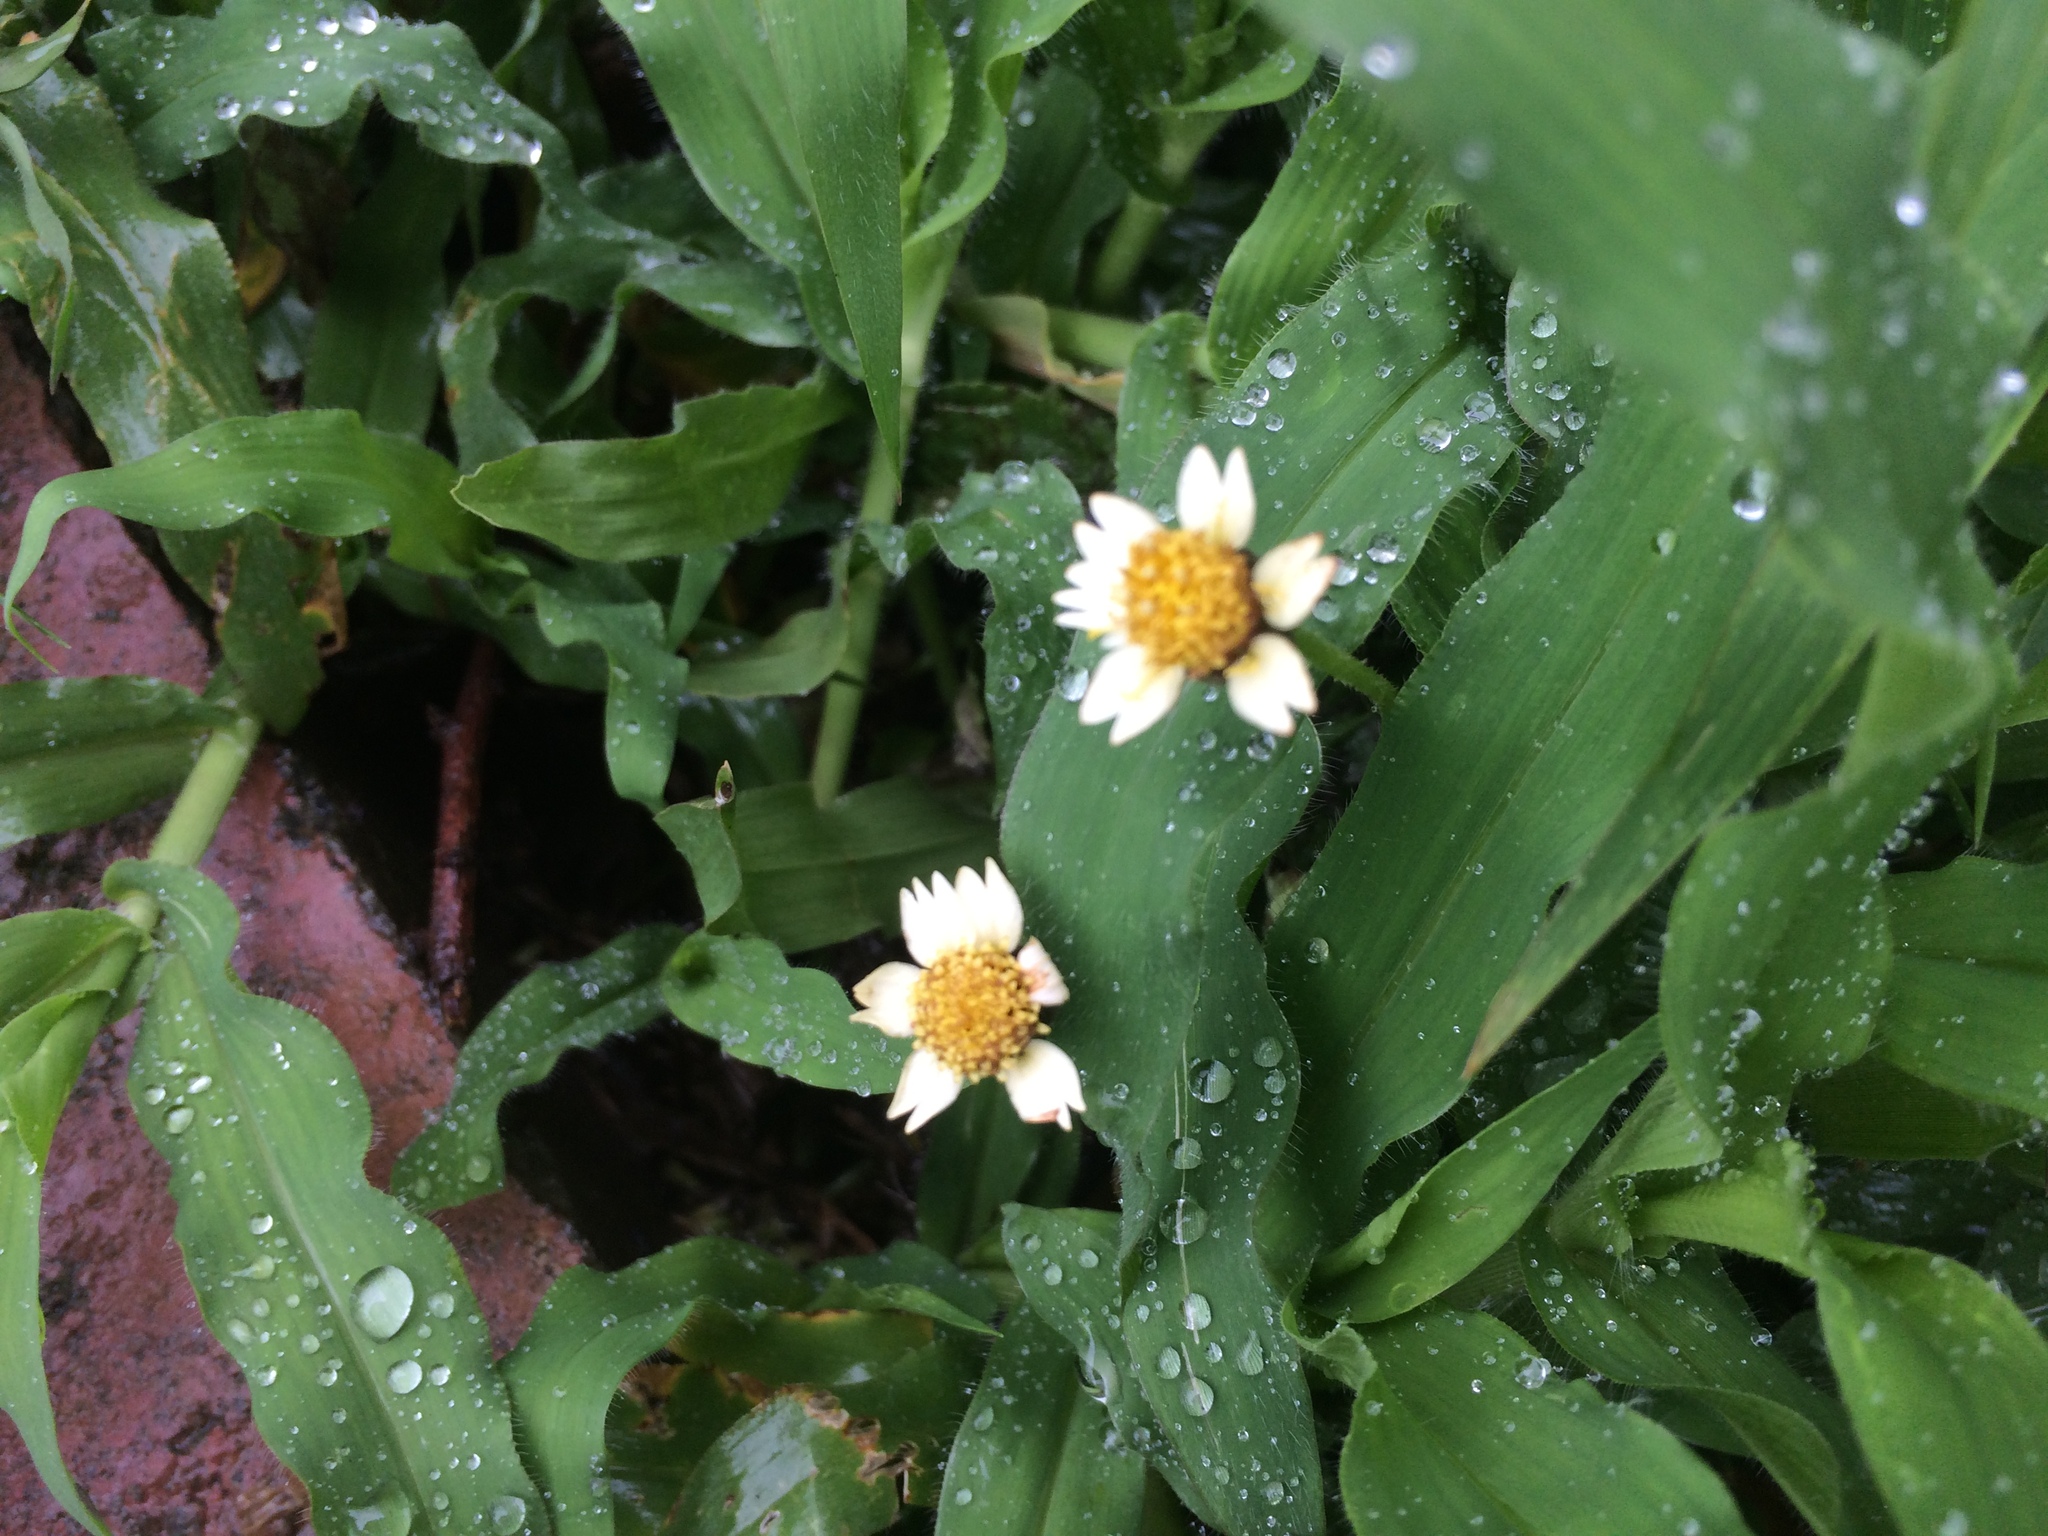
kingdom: Plantae
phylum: Tracheophyta
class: Magnoliopsida
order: Asterales
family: Asteraceae
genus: Tridax
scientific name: Tridax procumbens
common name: Coatbuttons
